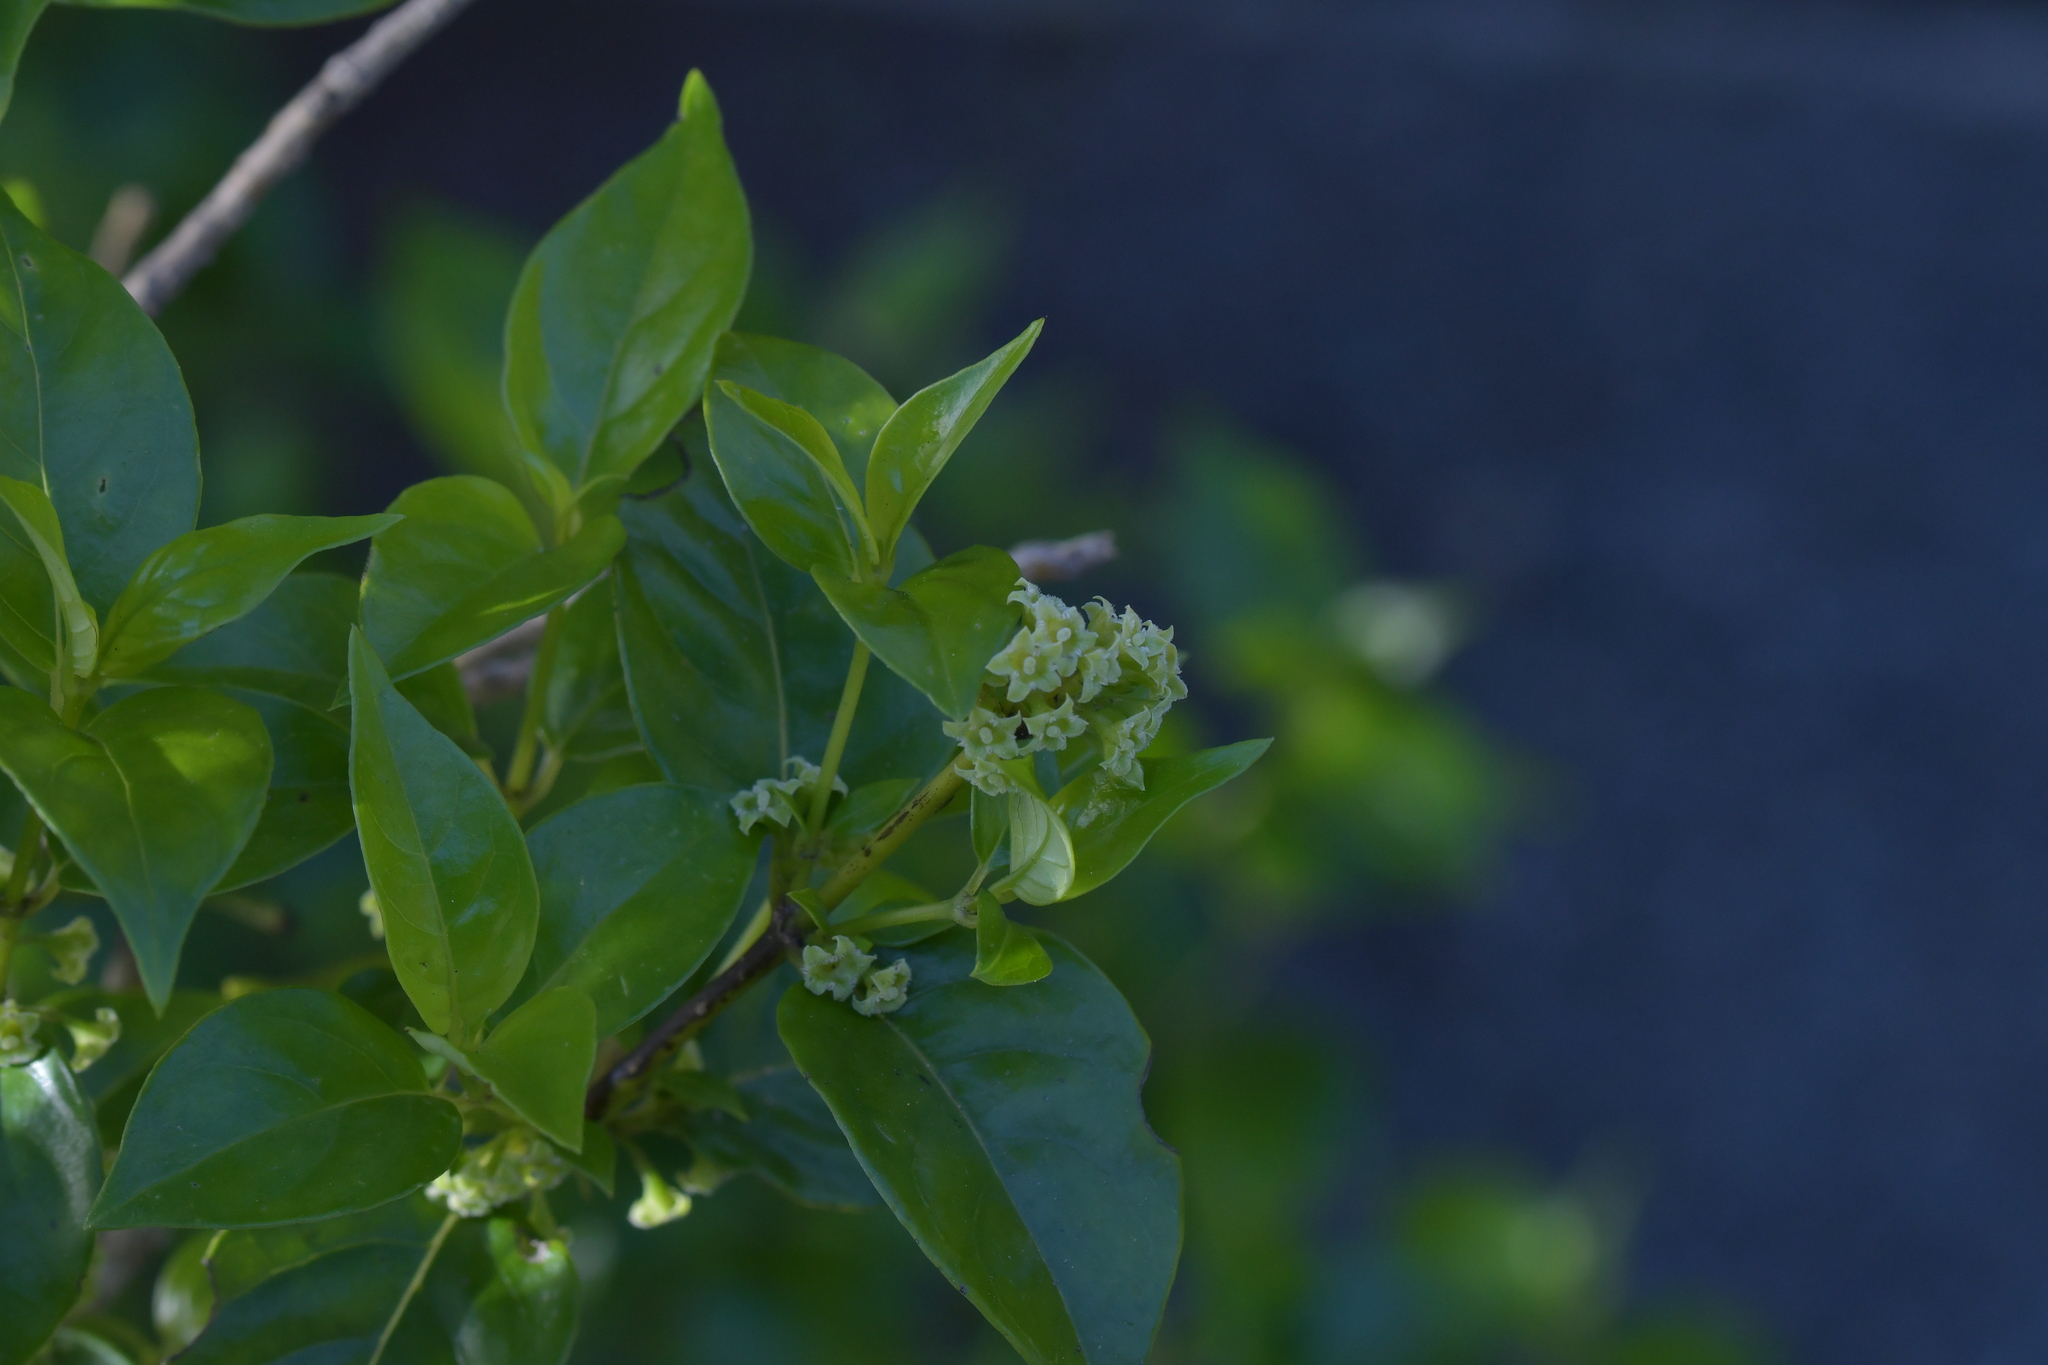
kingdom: Plantae
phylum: Tracheophyta
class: Magnoliopsida
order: Gentianales
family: Loganiaceae
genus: Geniostoma
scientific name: Geniostoma ligustrifolium
